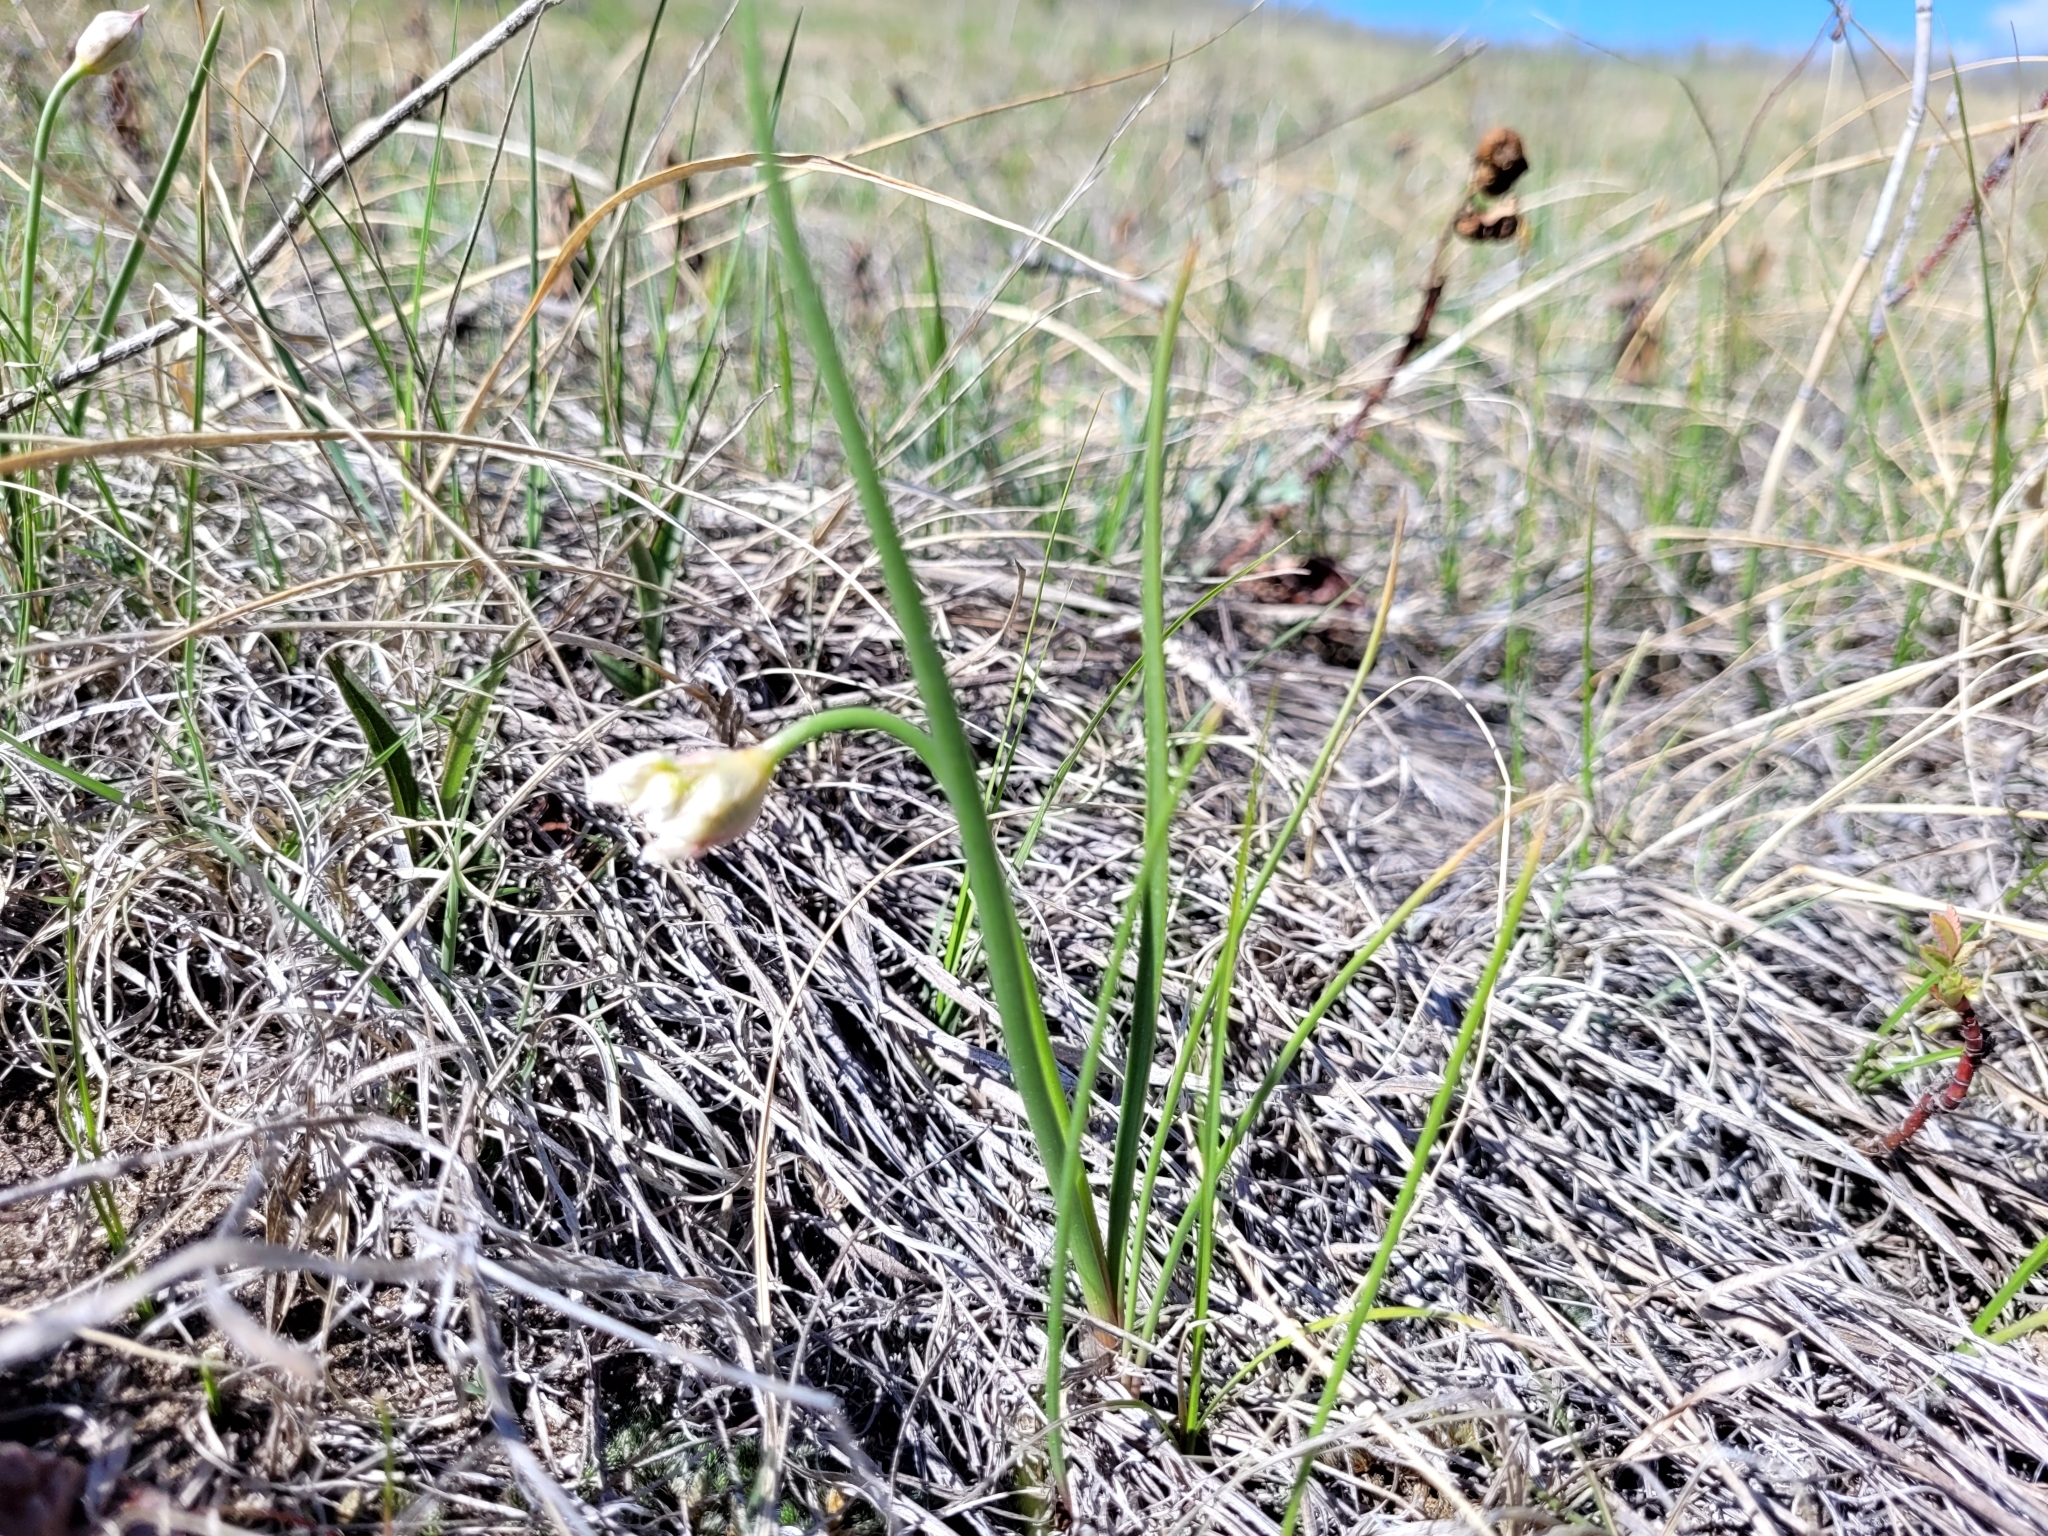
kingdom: Plantae
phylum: Tracheophyta
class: Liliopsida
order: Asparagales
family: Amaryllidaceae
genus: Allium
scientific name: Allium textile
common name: Prairie onion
